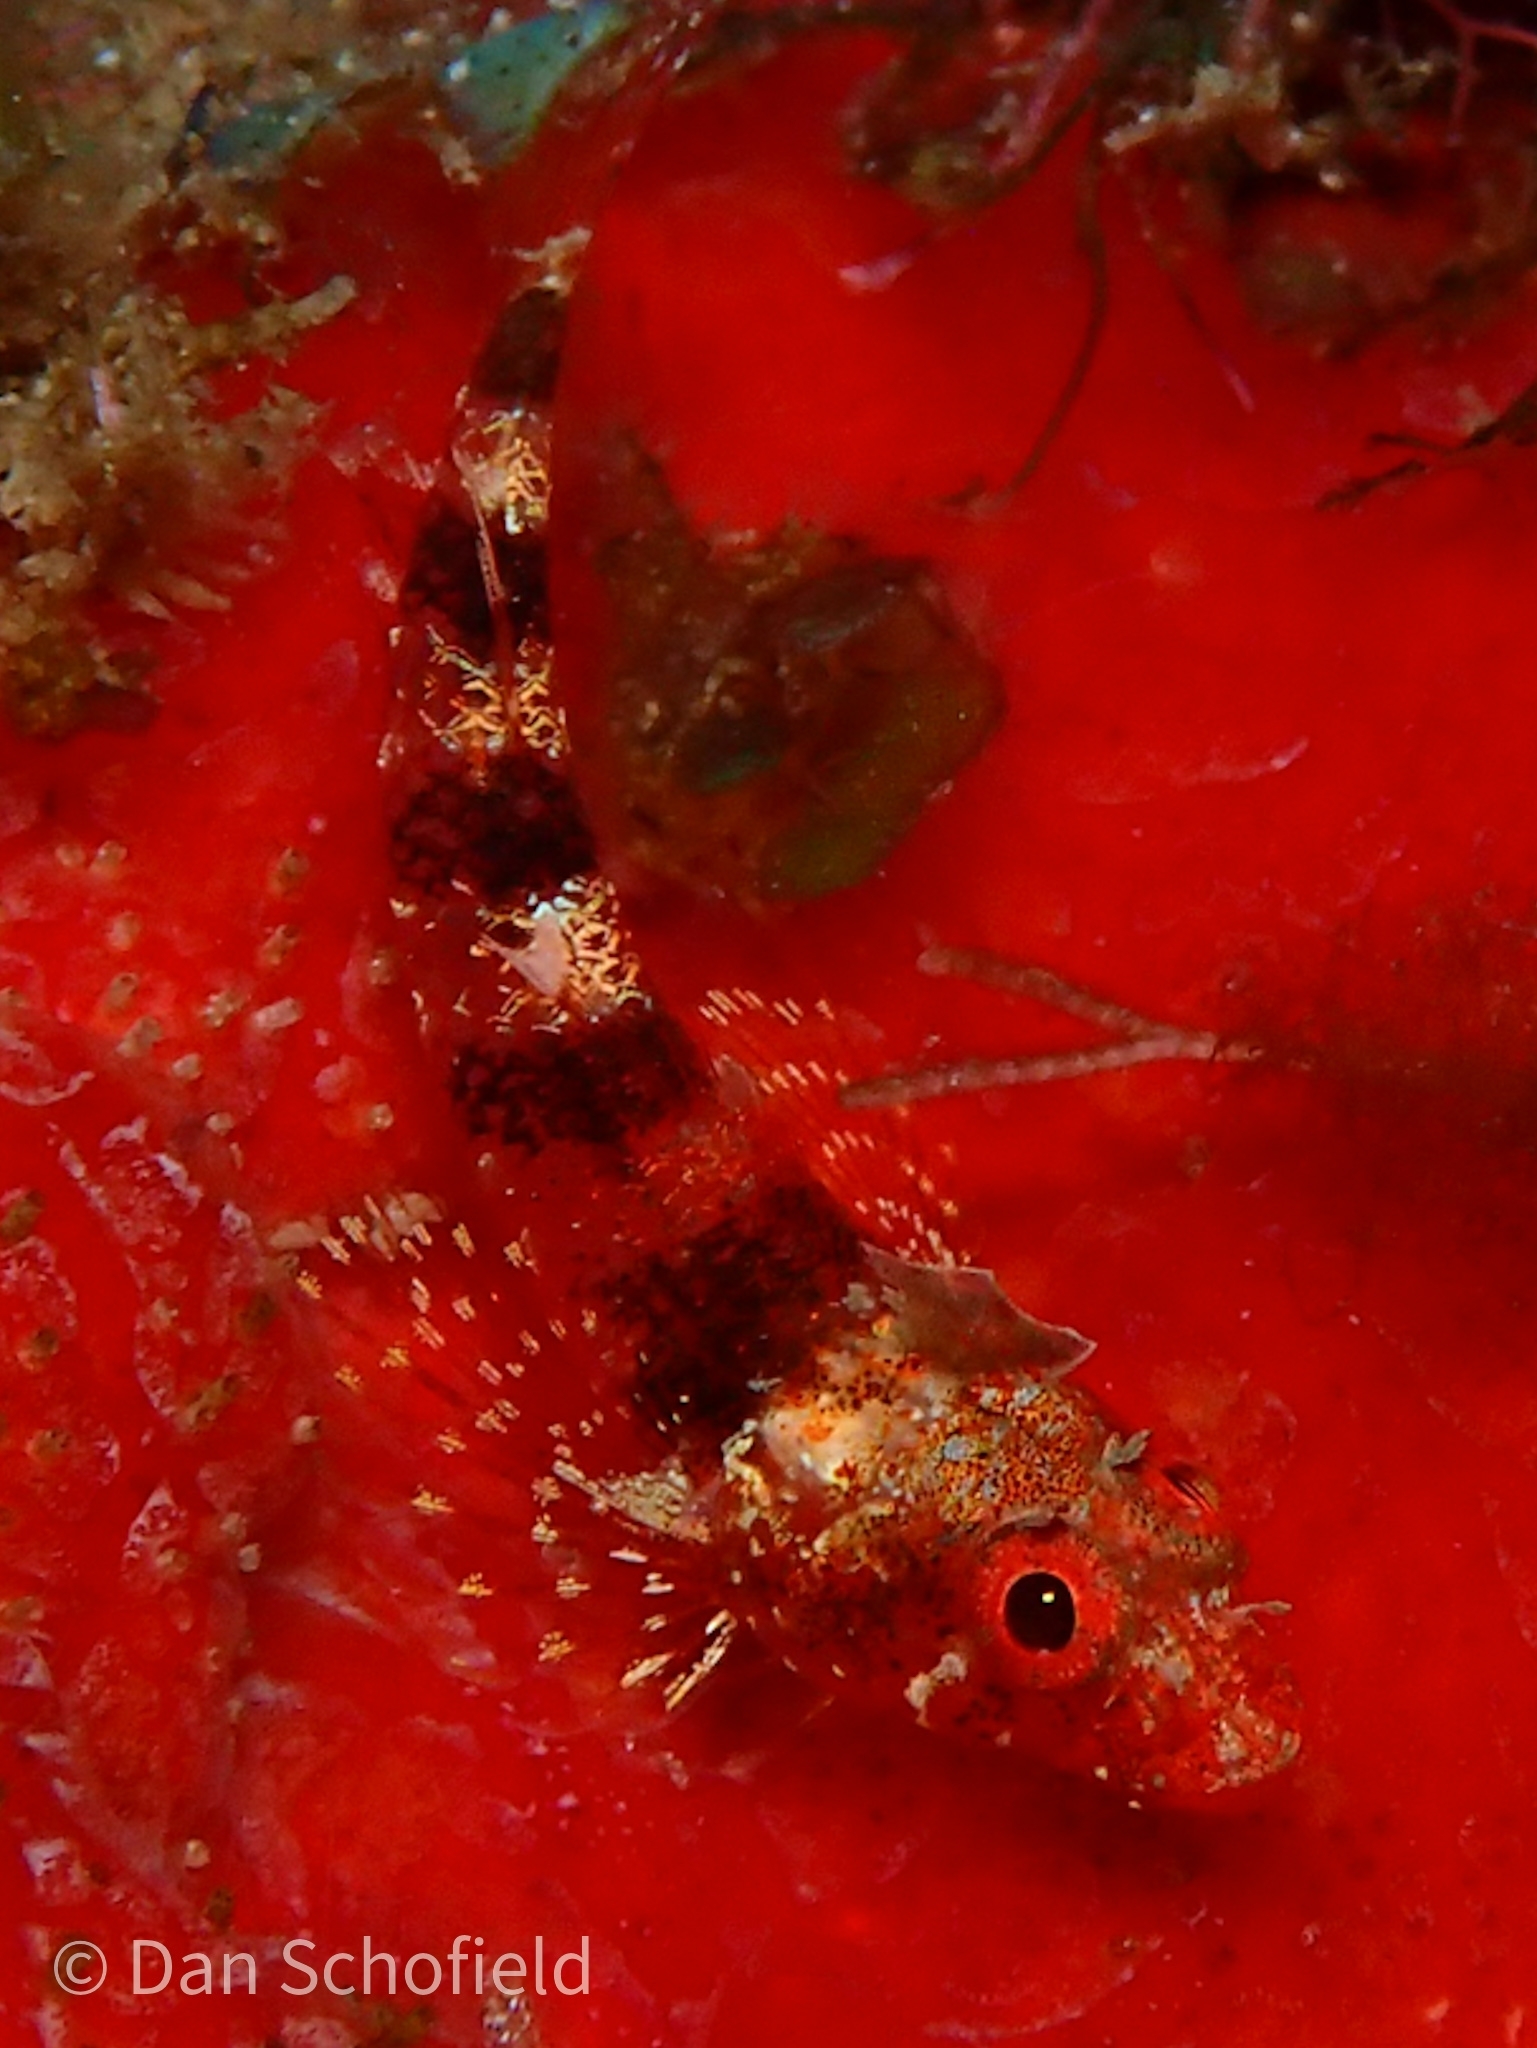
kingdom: Animalia
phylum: Chordata
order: Perciformes
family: Tripterygiidae
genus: Enneanectes
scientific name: Enneanectes atrorus
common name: Blackedge triplefin
